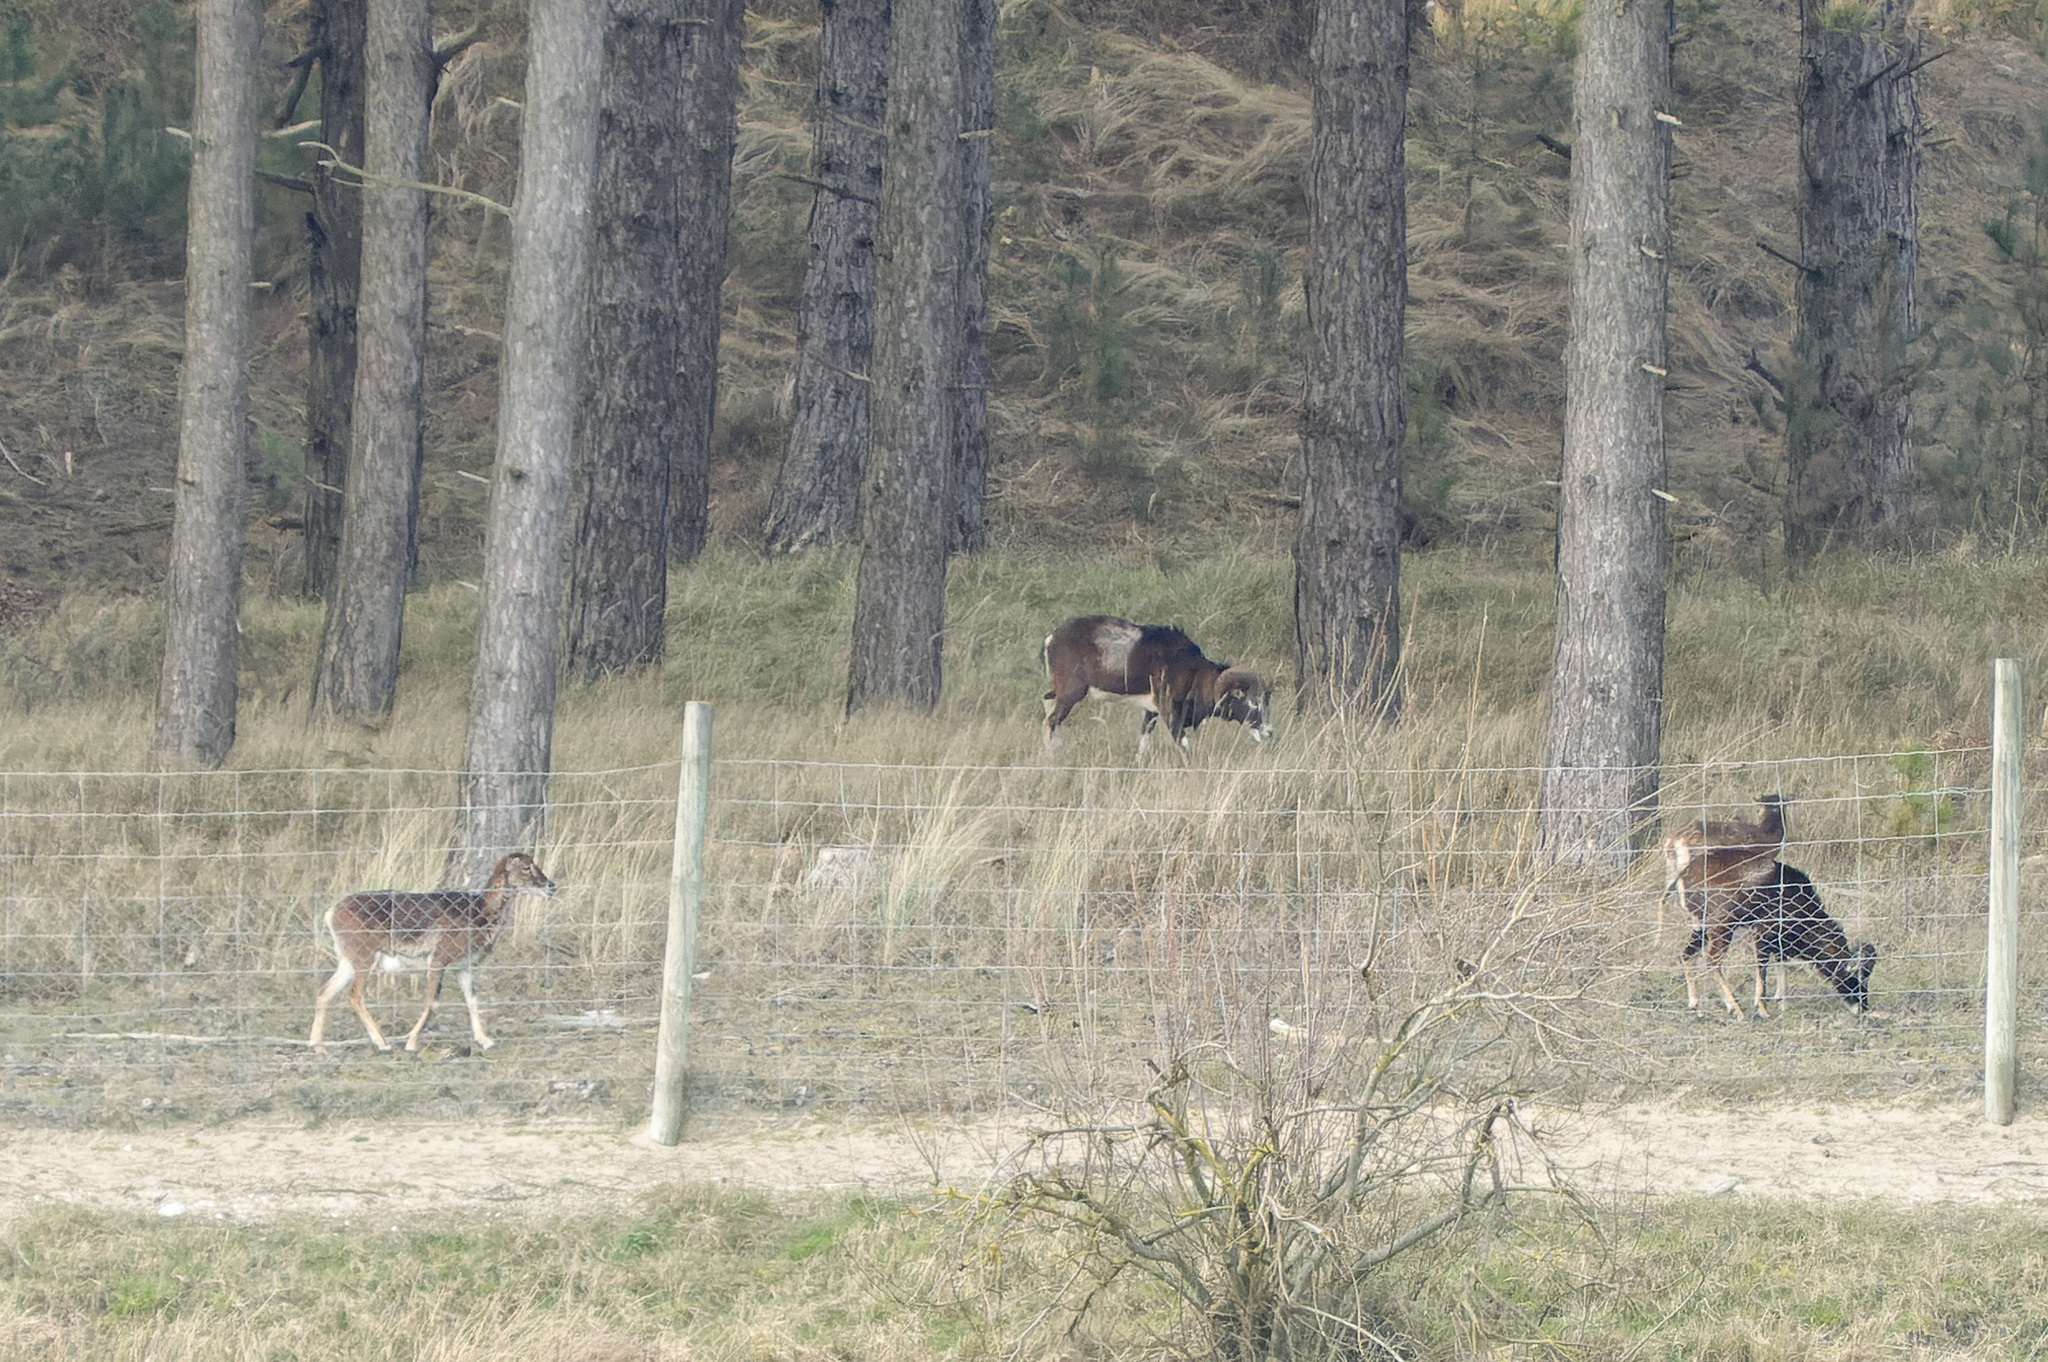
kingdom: Animalia
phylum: Chordata
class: Mammalia
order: Artiodactyla
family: Bovidae
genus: Ovis
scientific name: Ovis aries
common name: Domestic sheep
